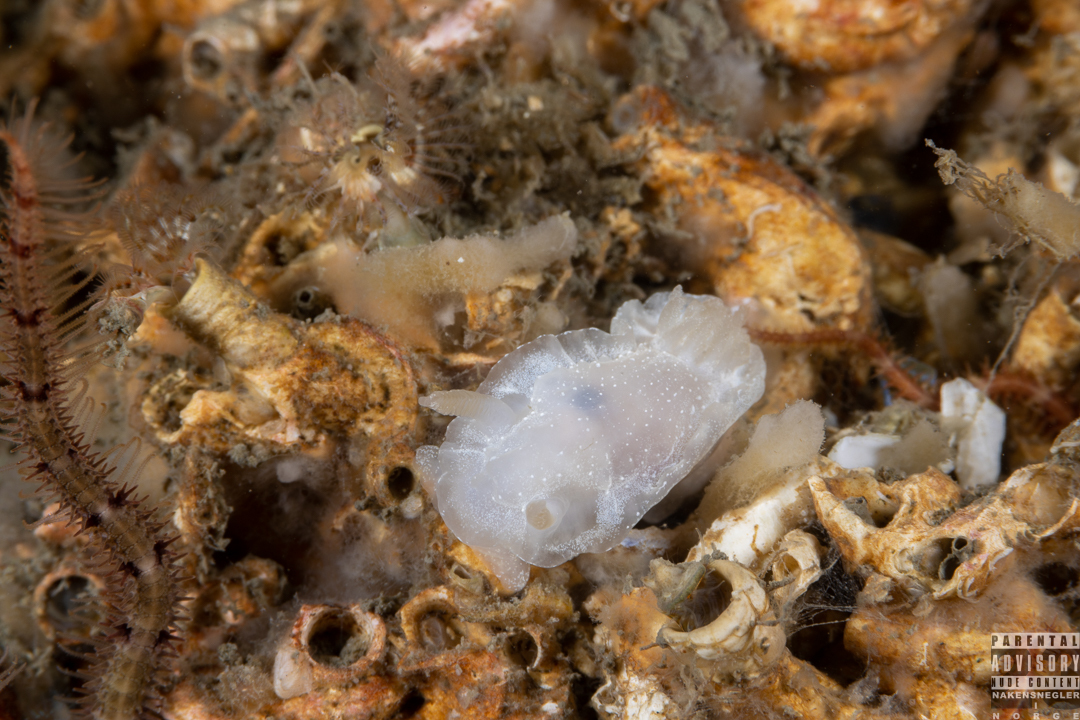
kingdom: Animalia
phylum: Mollusca
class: Gastropoda
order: Nudibranchia
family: Goniodorididae
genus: Okenia
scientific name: Okenia
